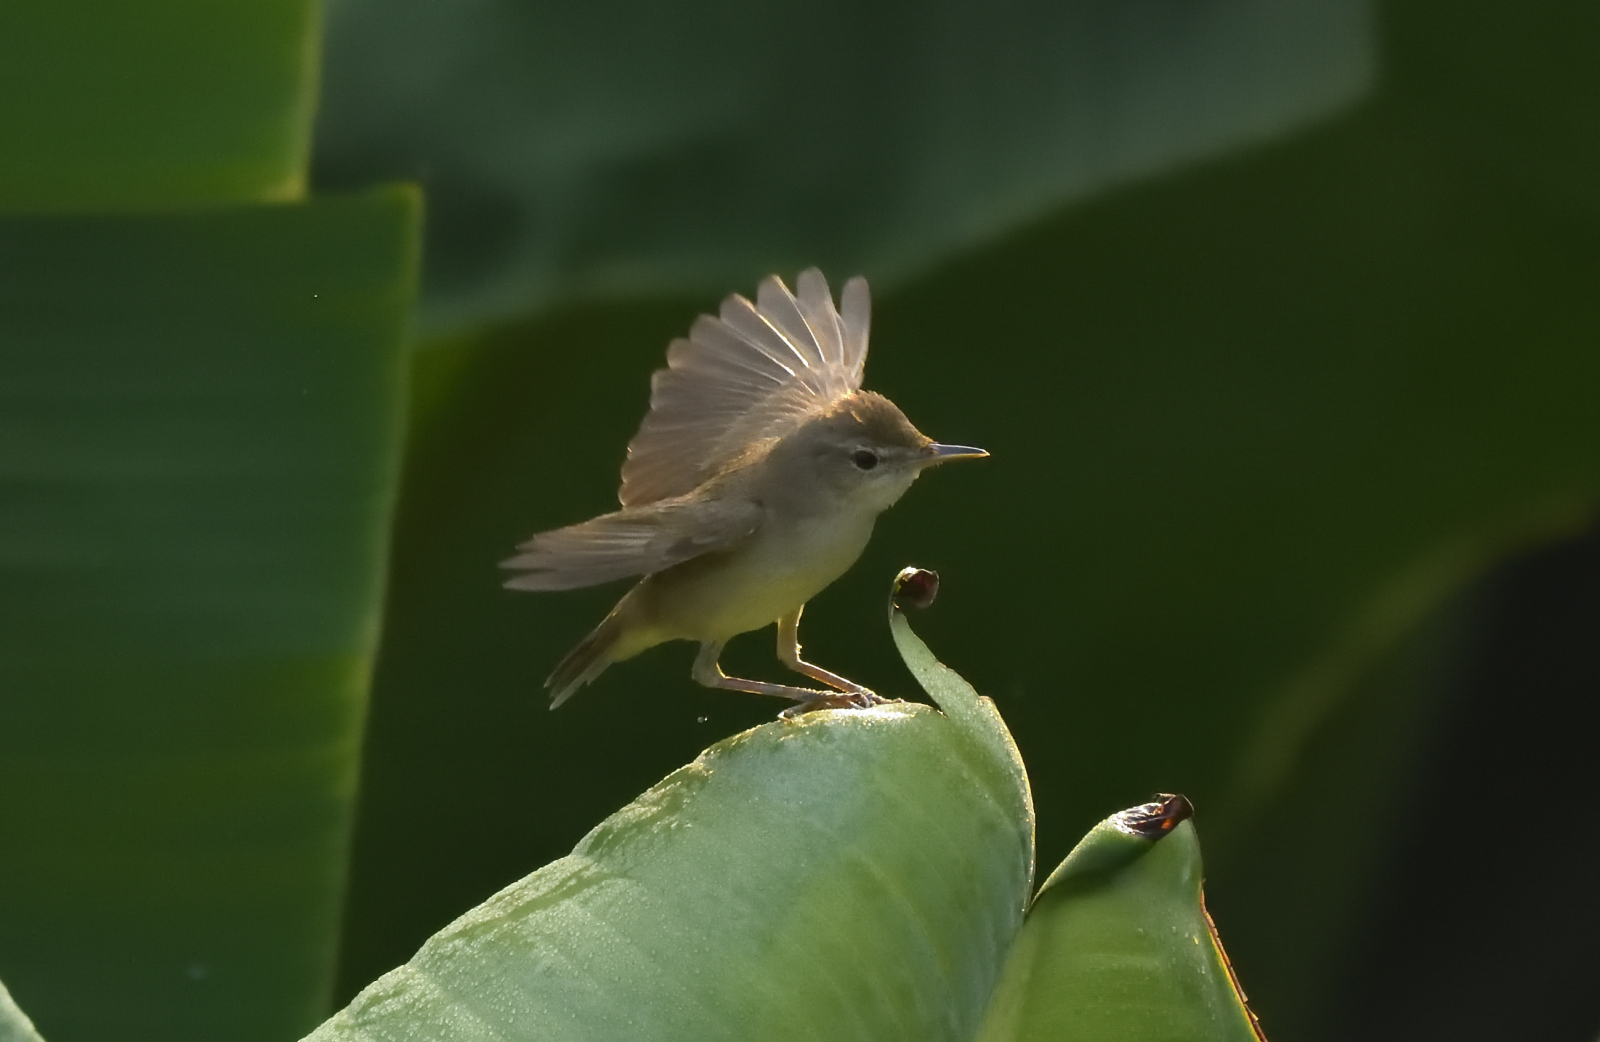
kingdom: Animalia
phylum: Chordata
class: Aves
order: Passeriformes
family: Acrocephalidae
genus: Acrocephalus
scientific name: Acrocephalus dumetorum
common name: Blyth's reed warbler
